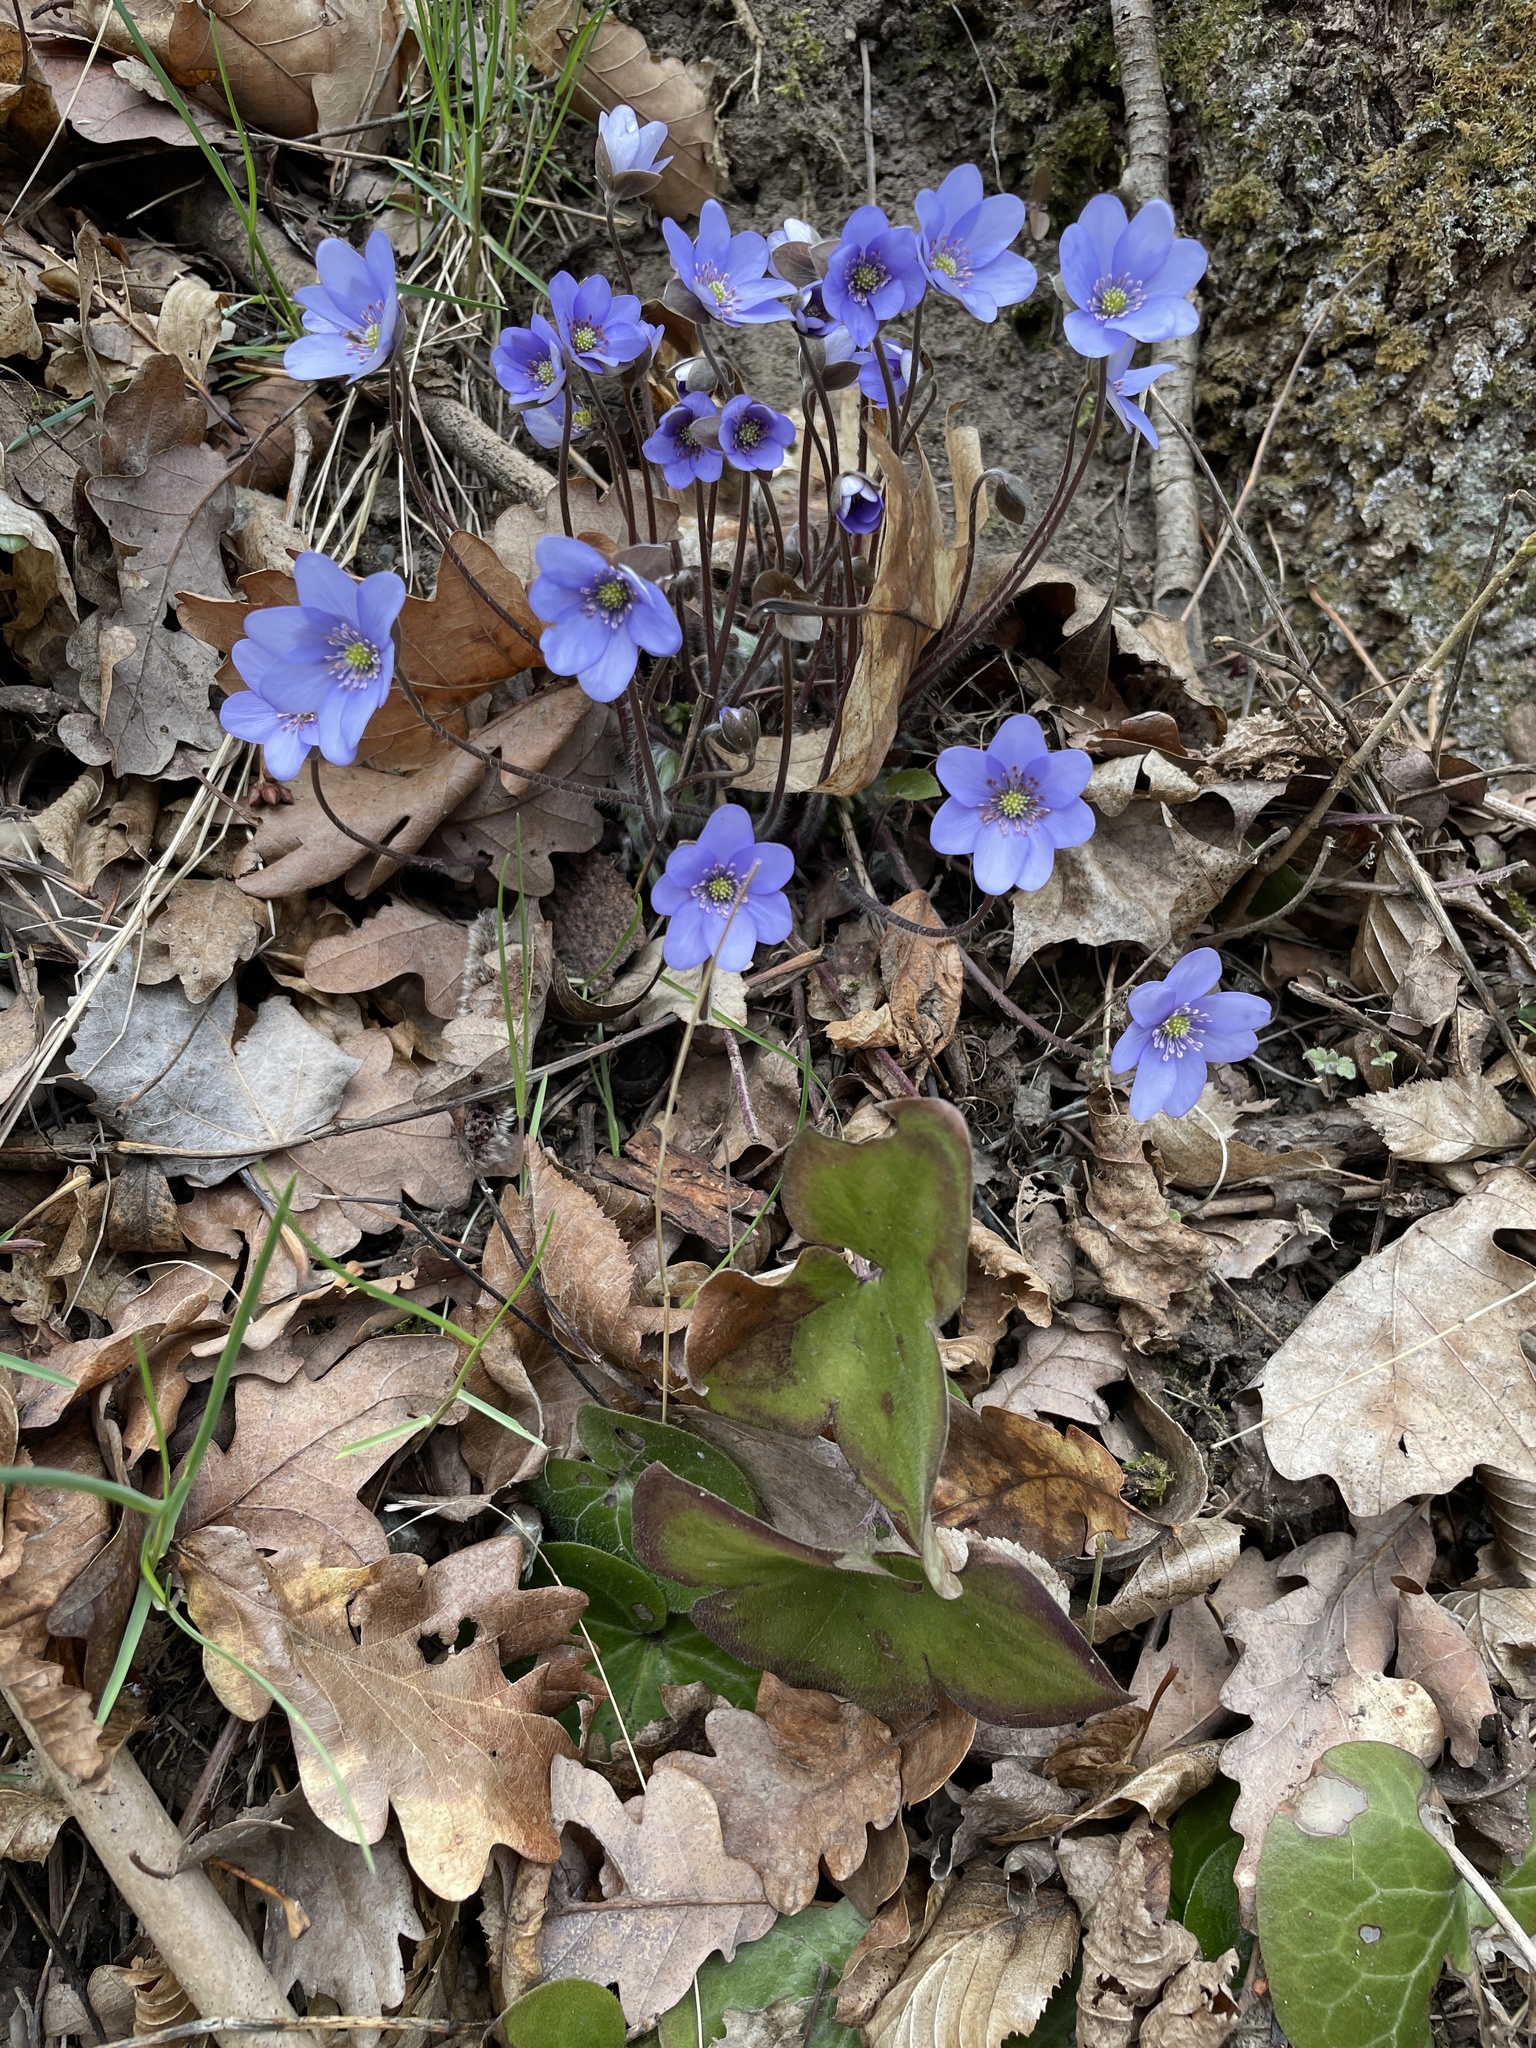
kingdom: Plantae
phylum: Tracheophyta
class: Magnoliopsida
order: Ranunculales
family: Ranunculaceae
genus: Hepatica
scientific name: Hepatica nobilis
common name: Liverleaf
